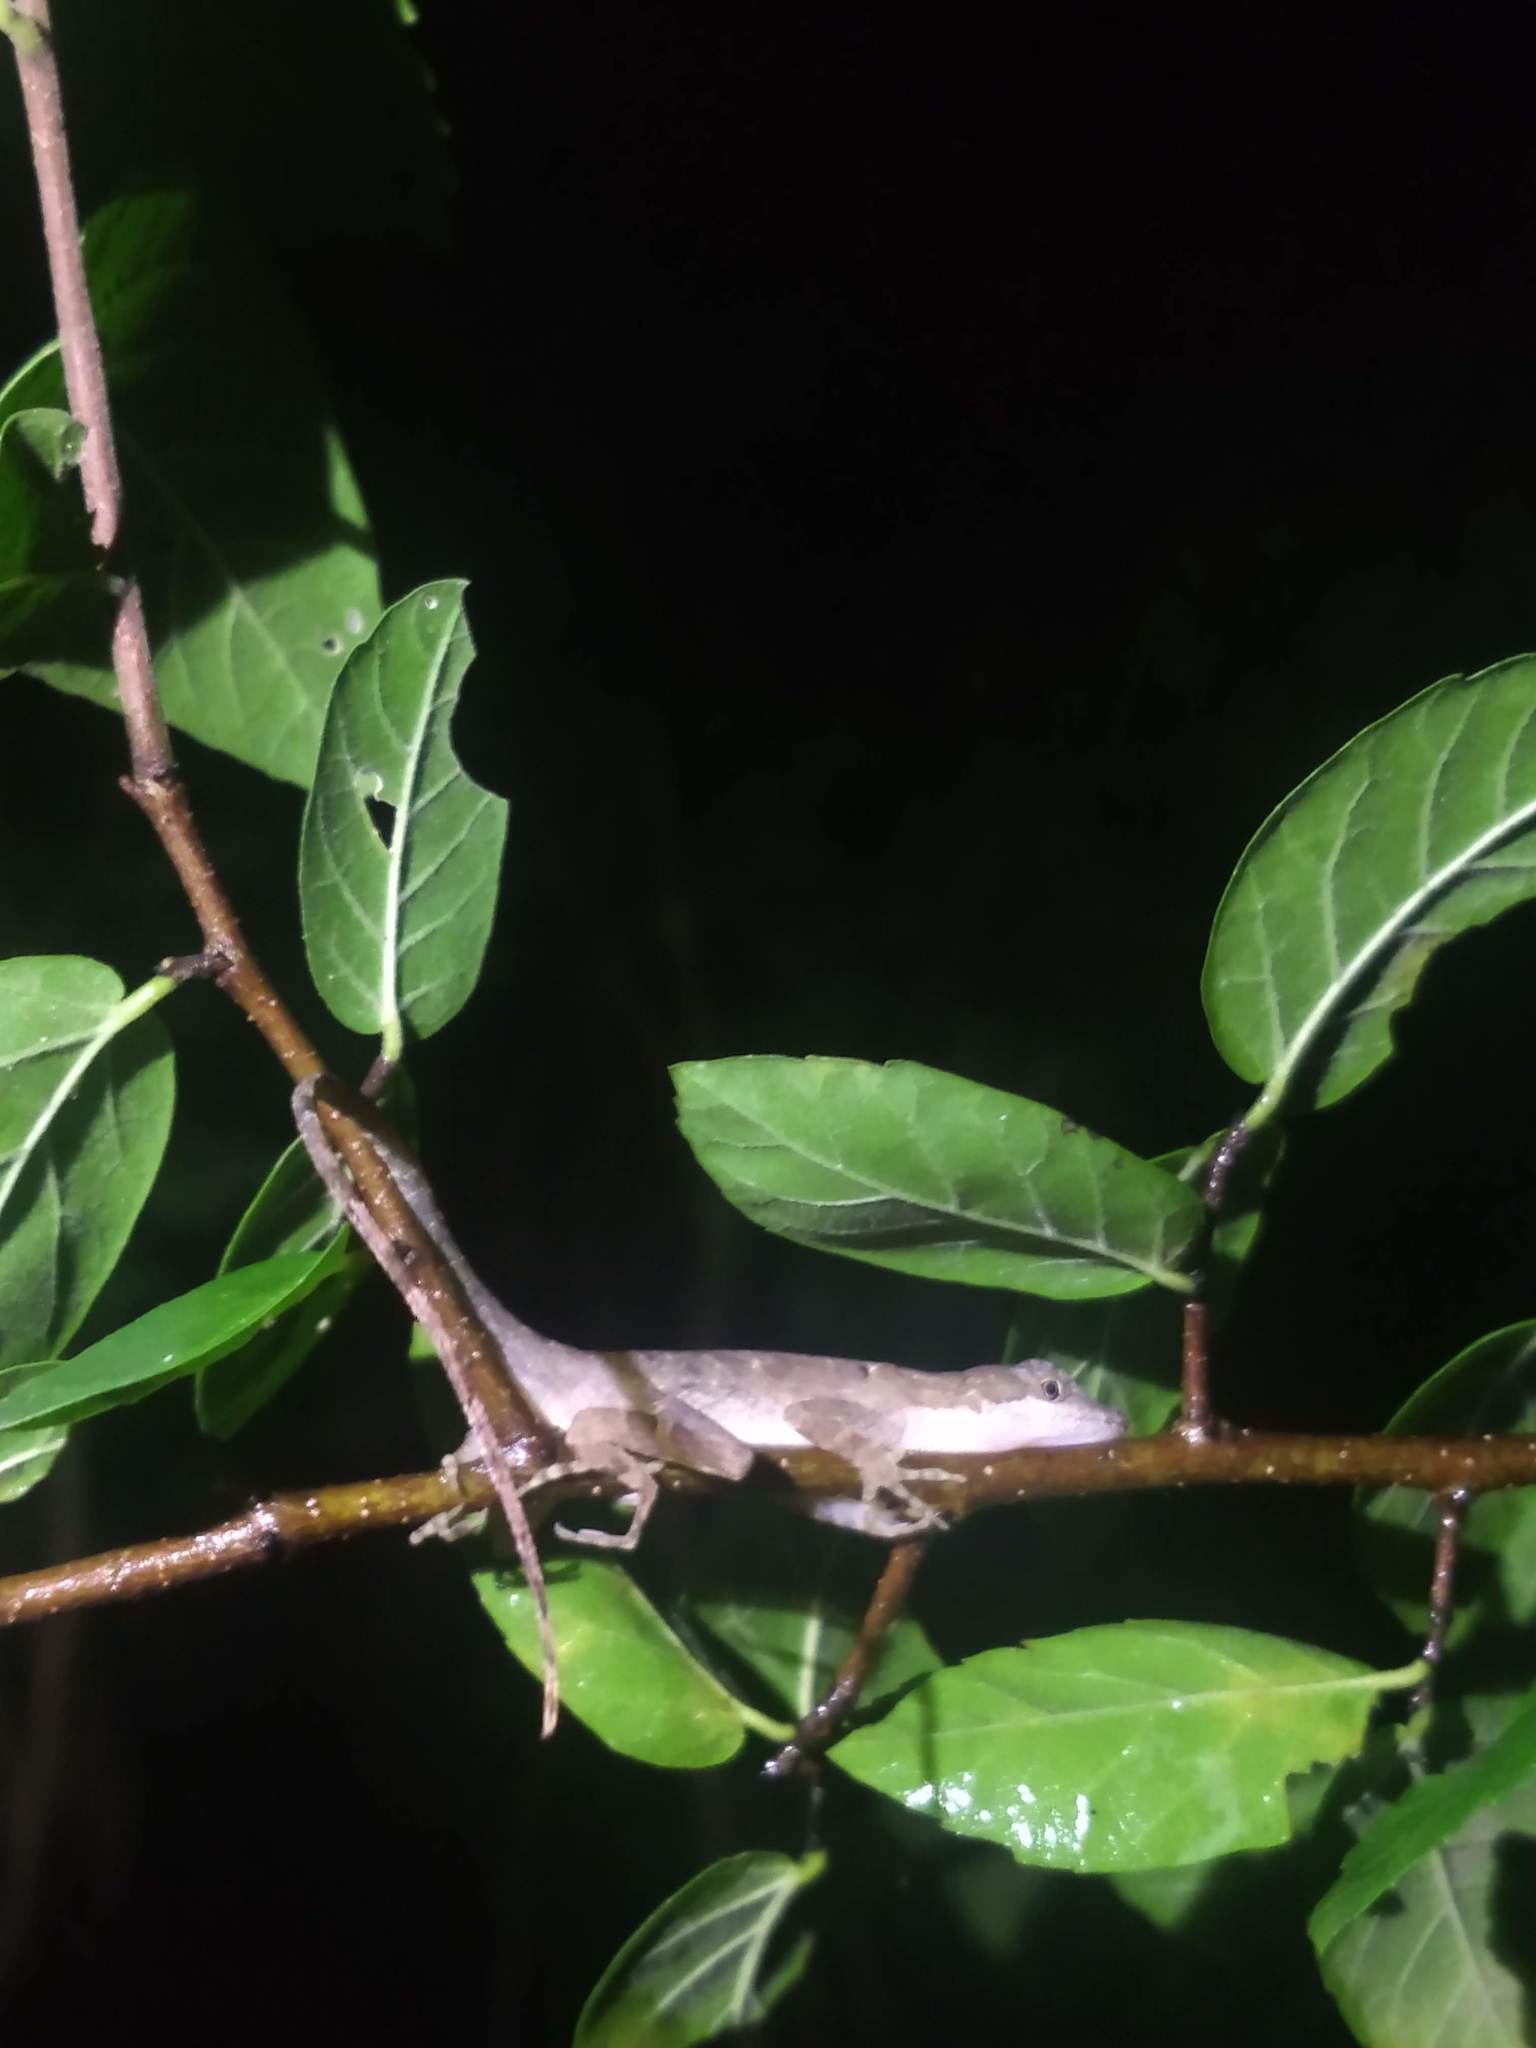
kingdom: Animalia
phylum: Chordata
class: Squamata
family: Dactyloidae
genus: Anolis
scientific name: Anolis rodriguezii
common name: Middle american smooth anole
